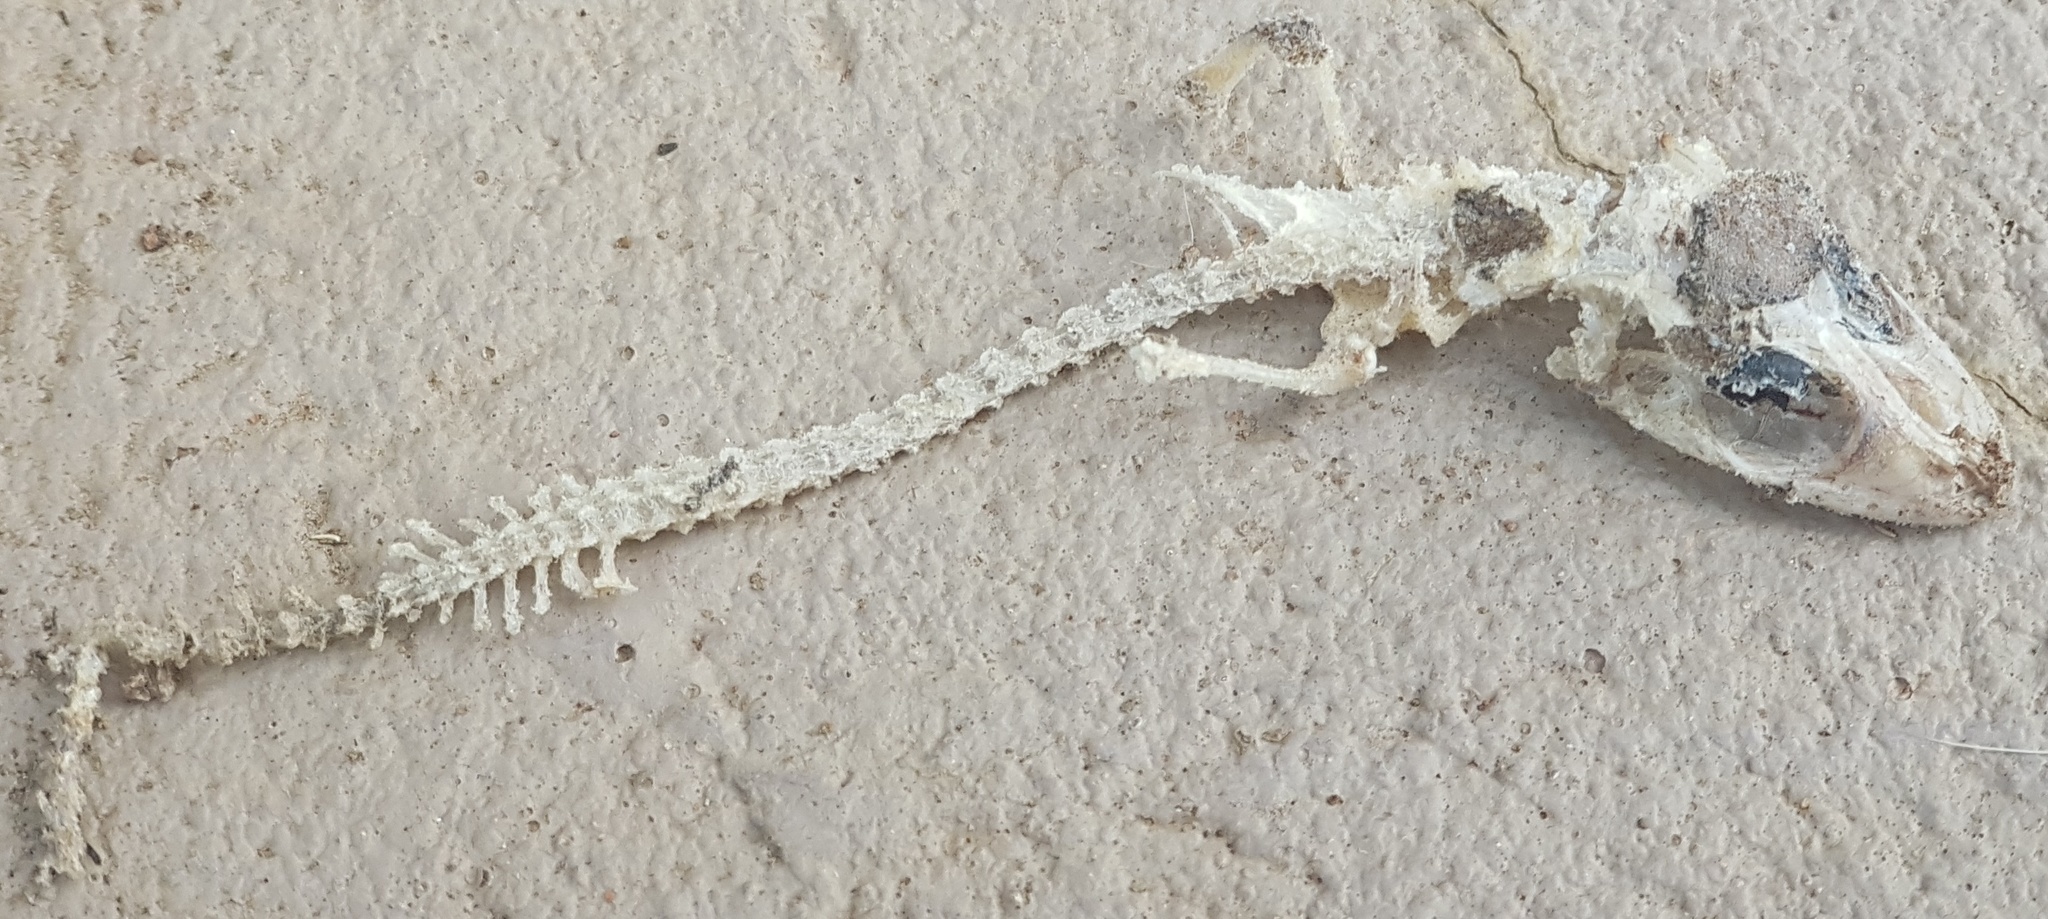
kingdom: Animalia
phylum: Chordata
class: Squamata
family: Gekkonidae
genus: Hemidactylus
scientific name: Hemidactylus mabouia
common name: House gecko
